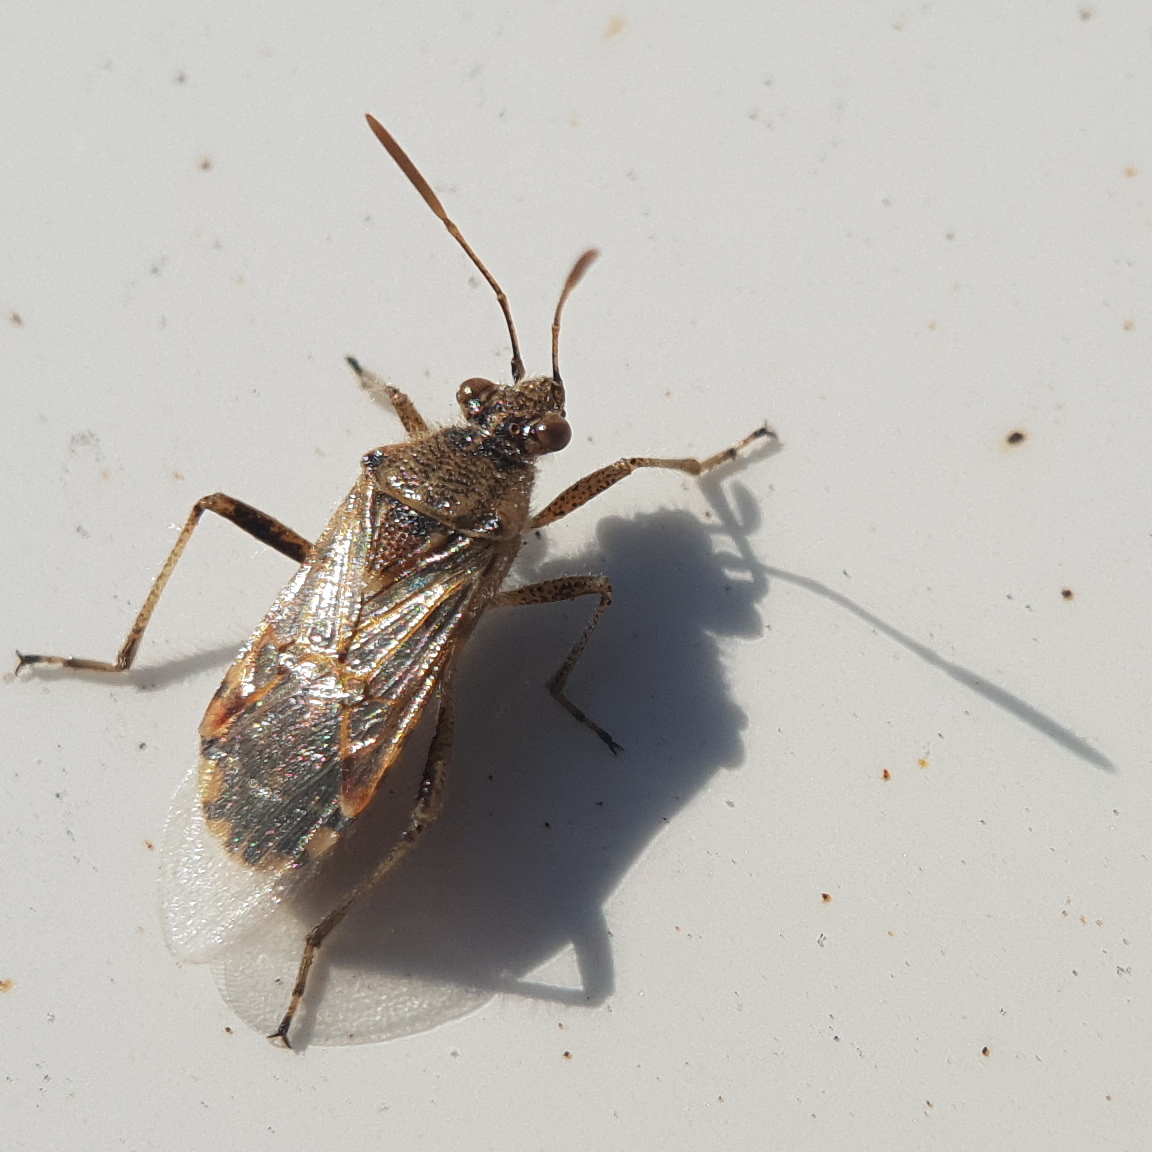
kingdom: Animalia
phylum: Arthropoda
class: Insecta
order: Hemiptera
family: Rhopalidae
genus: Liorhyssus
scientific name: Liorhyssus hyalinus
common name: Scentless plant bug
